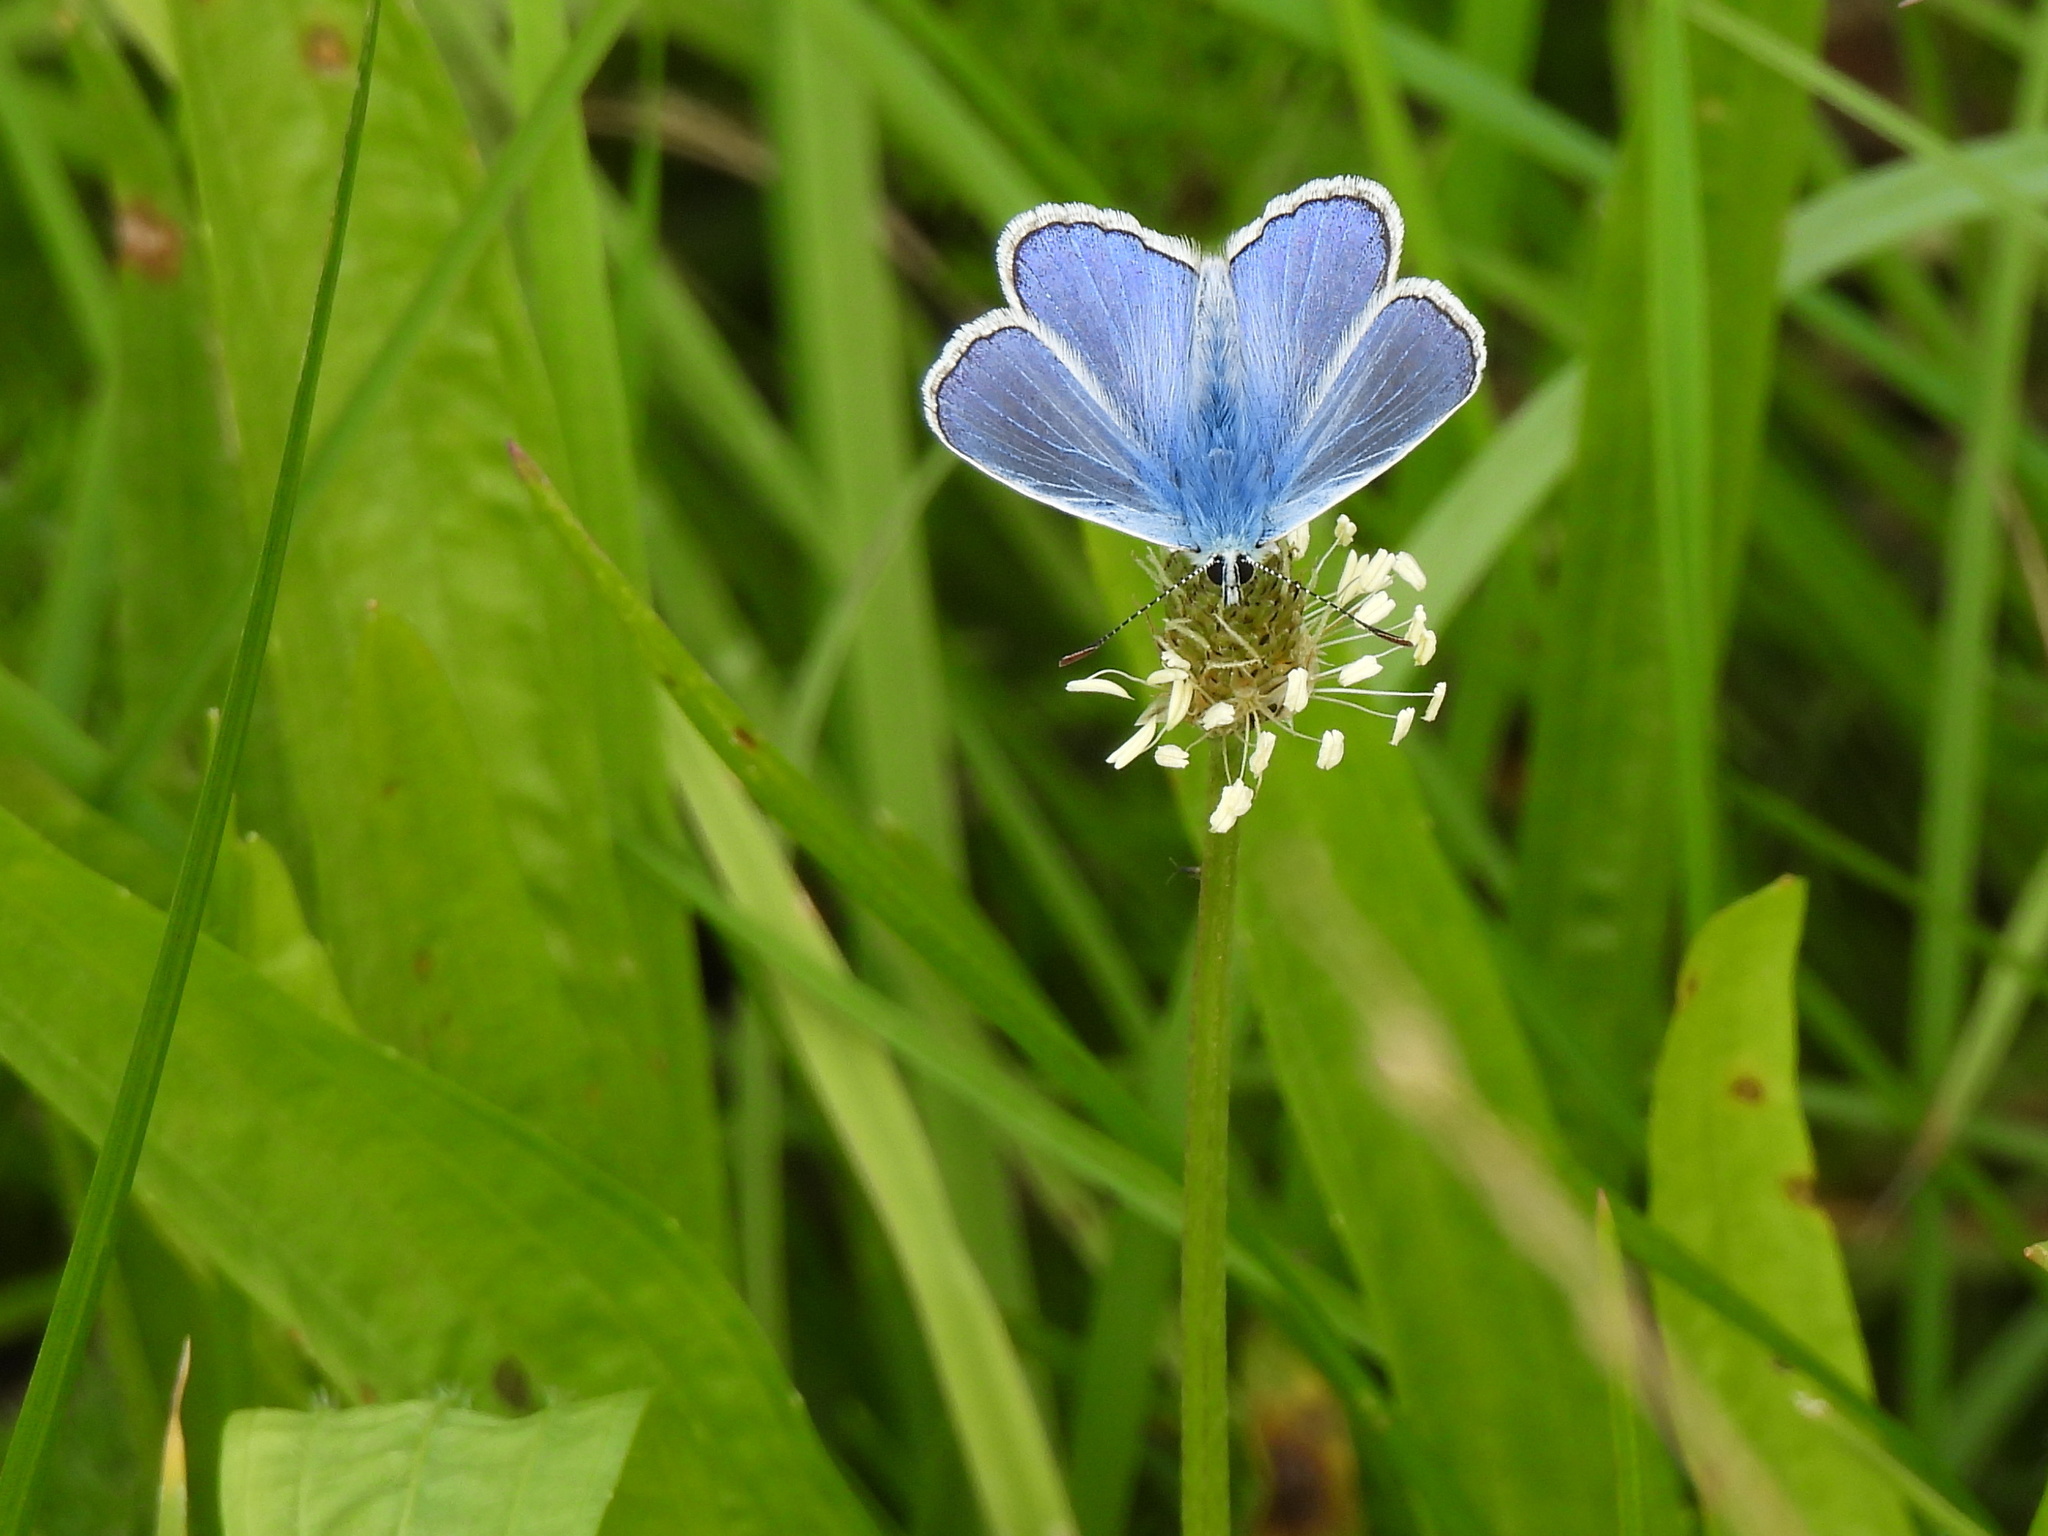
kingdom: Animalia
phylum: Arthropoda
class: Insecta
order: Lepidoptera
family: Lycaenidae
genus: Polyommatus
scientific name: Polyommatus icarus
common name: Common blue
